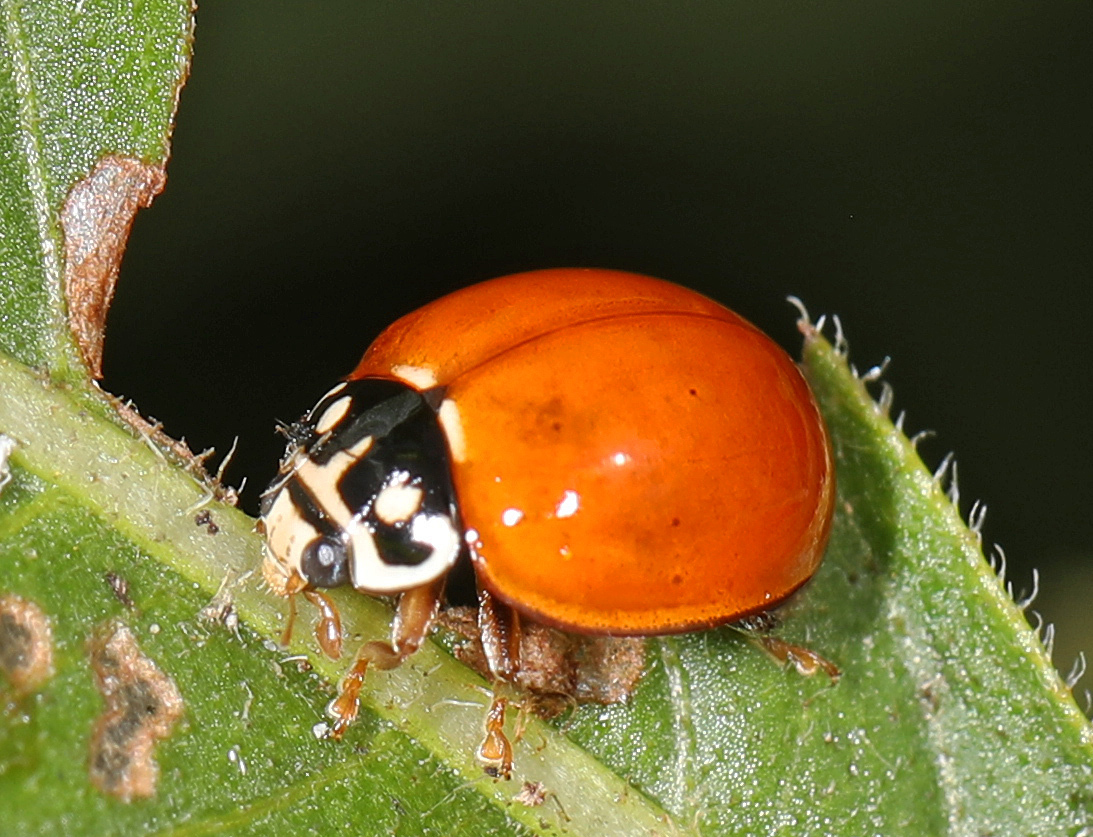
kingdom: Animalia
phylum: Arthropoda
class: Insecta
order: Coleoptera
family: Coccinellidae
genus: Cycloneda
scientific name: Cycloneda sanguinea
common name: Ladybird beetle
